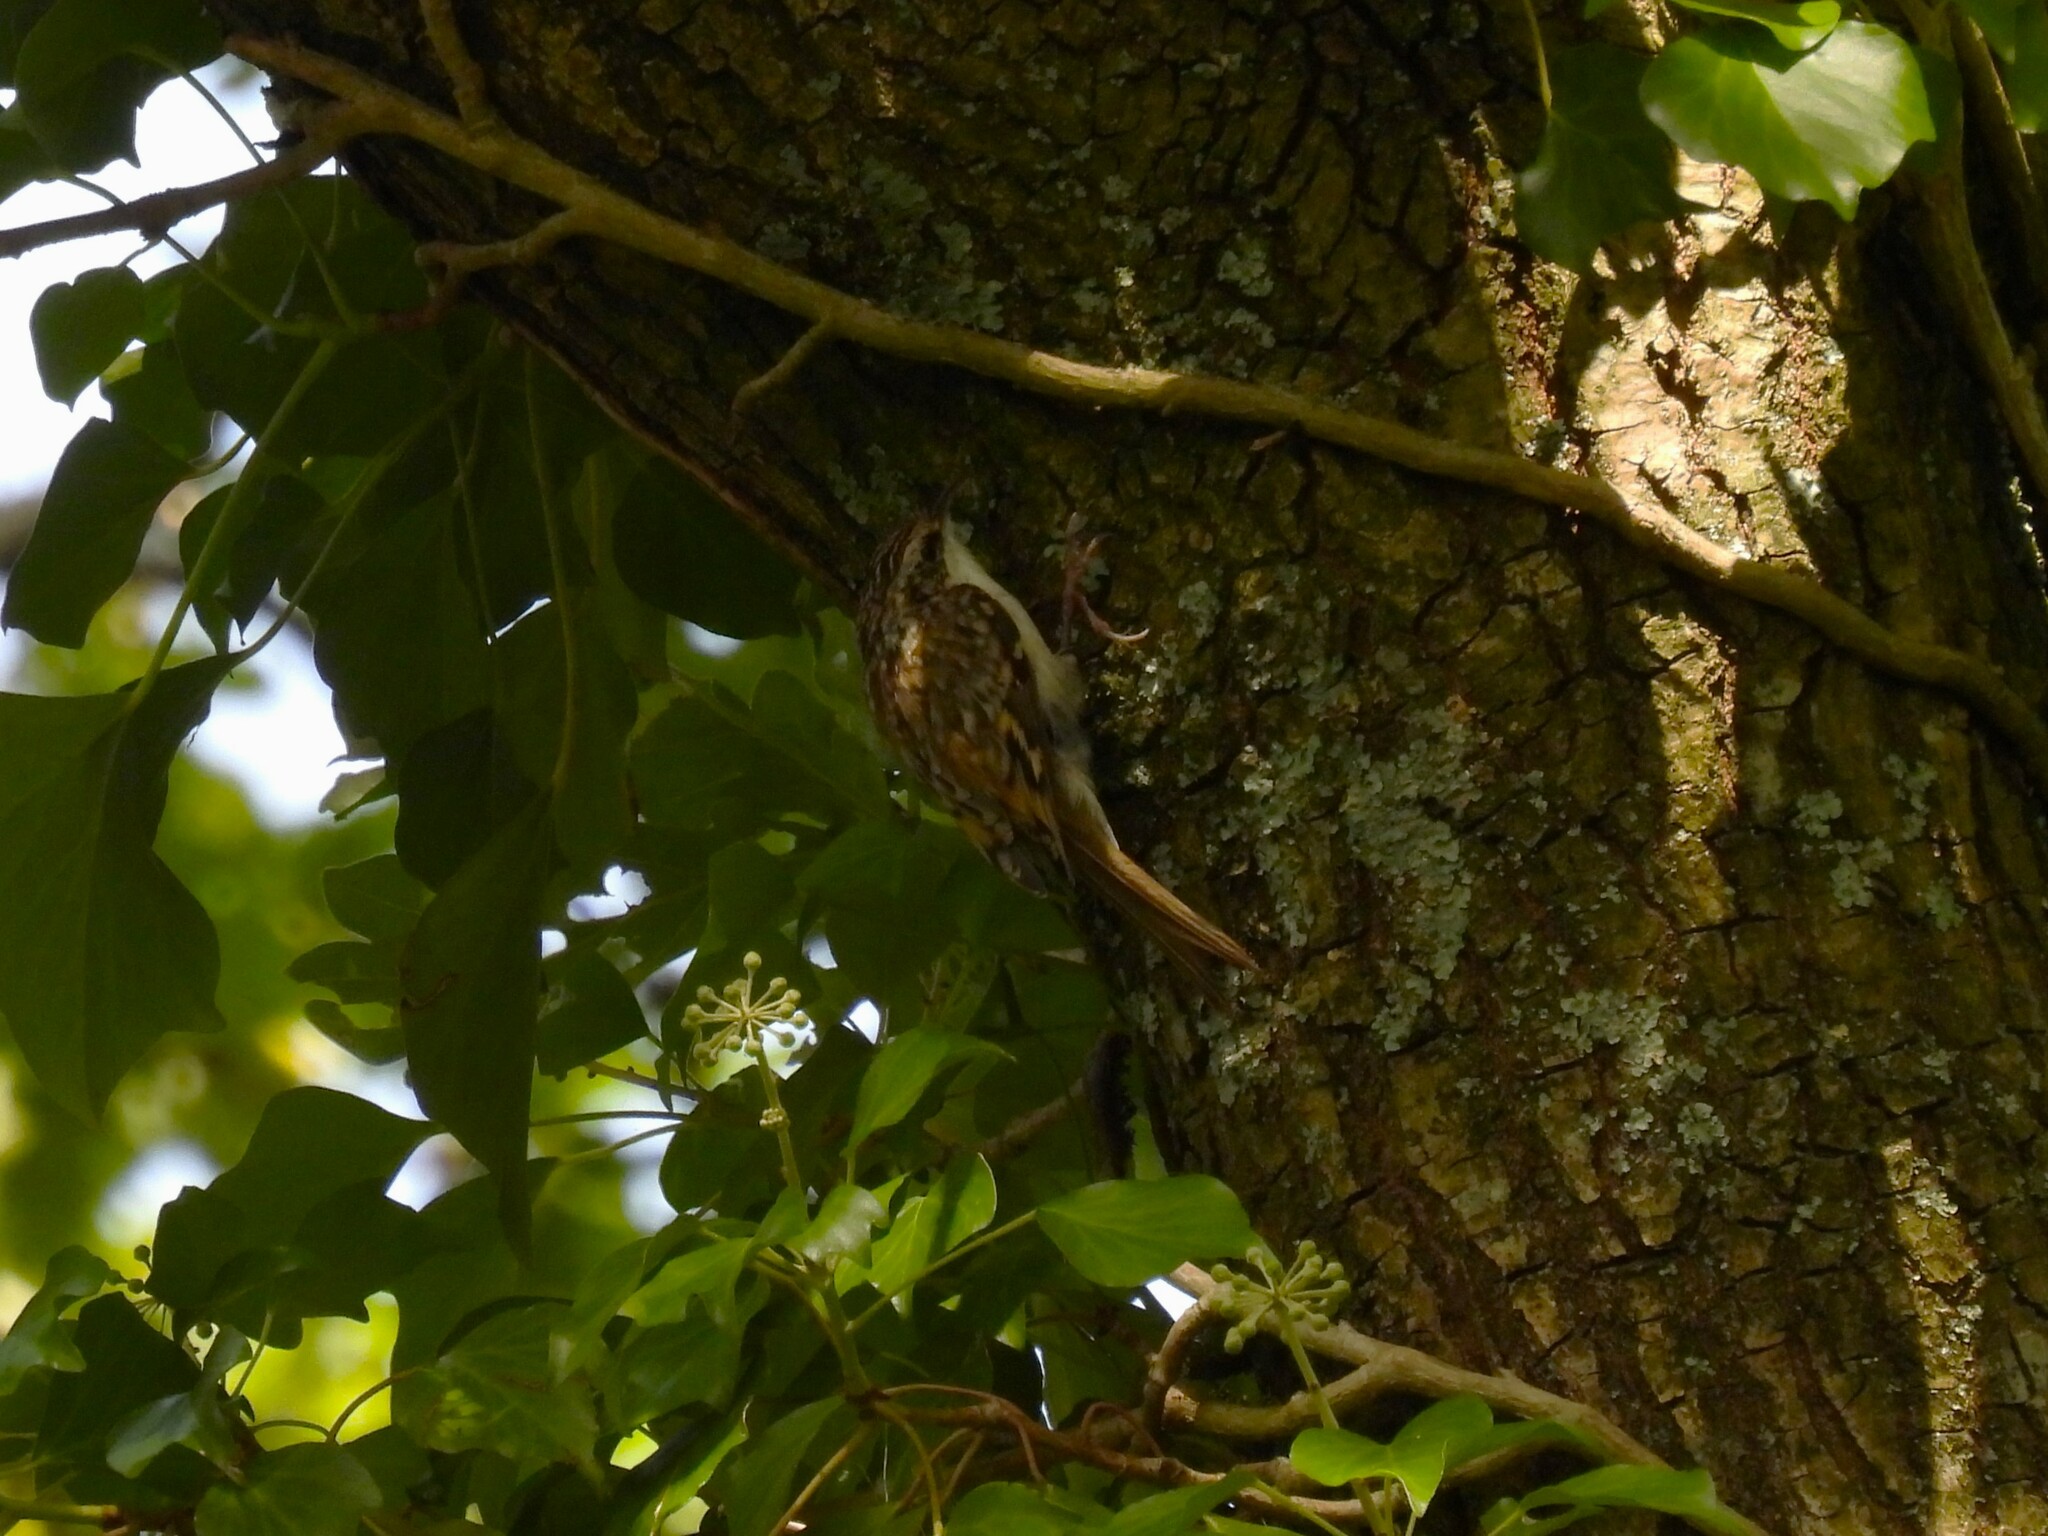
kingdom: Animalia
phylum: Chordata
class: Aves
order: Passeriformes
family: Certhiidae
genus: Certhia
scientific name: Certhia familiaris
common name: Eurasian treecreeper
